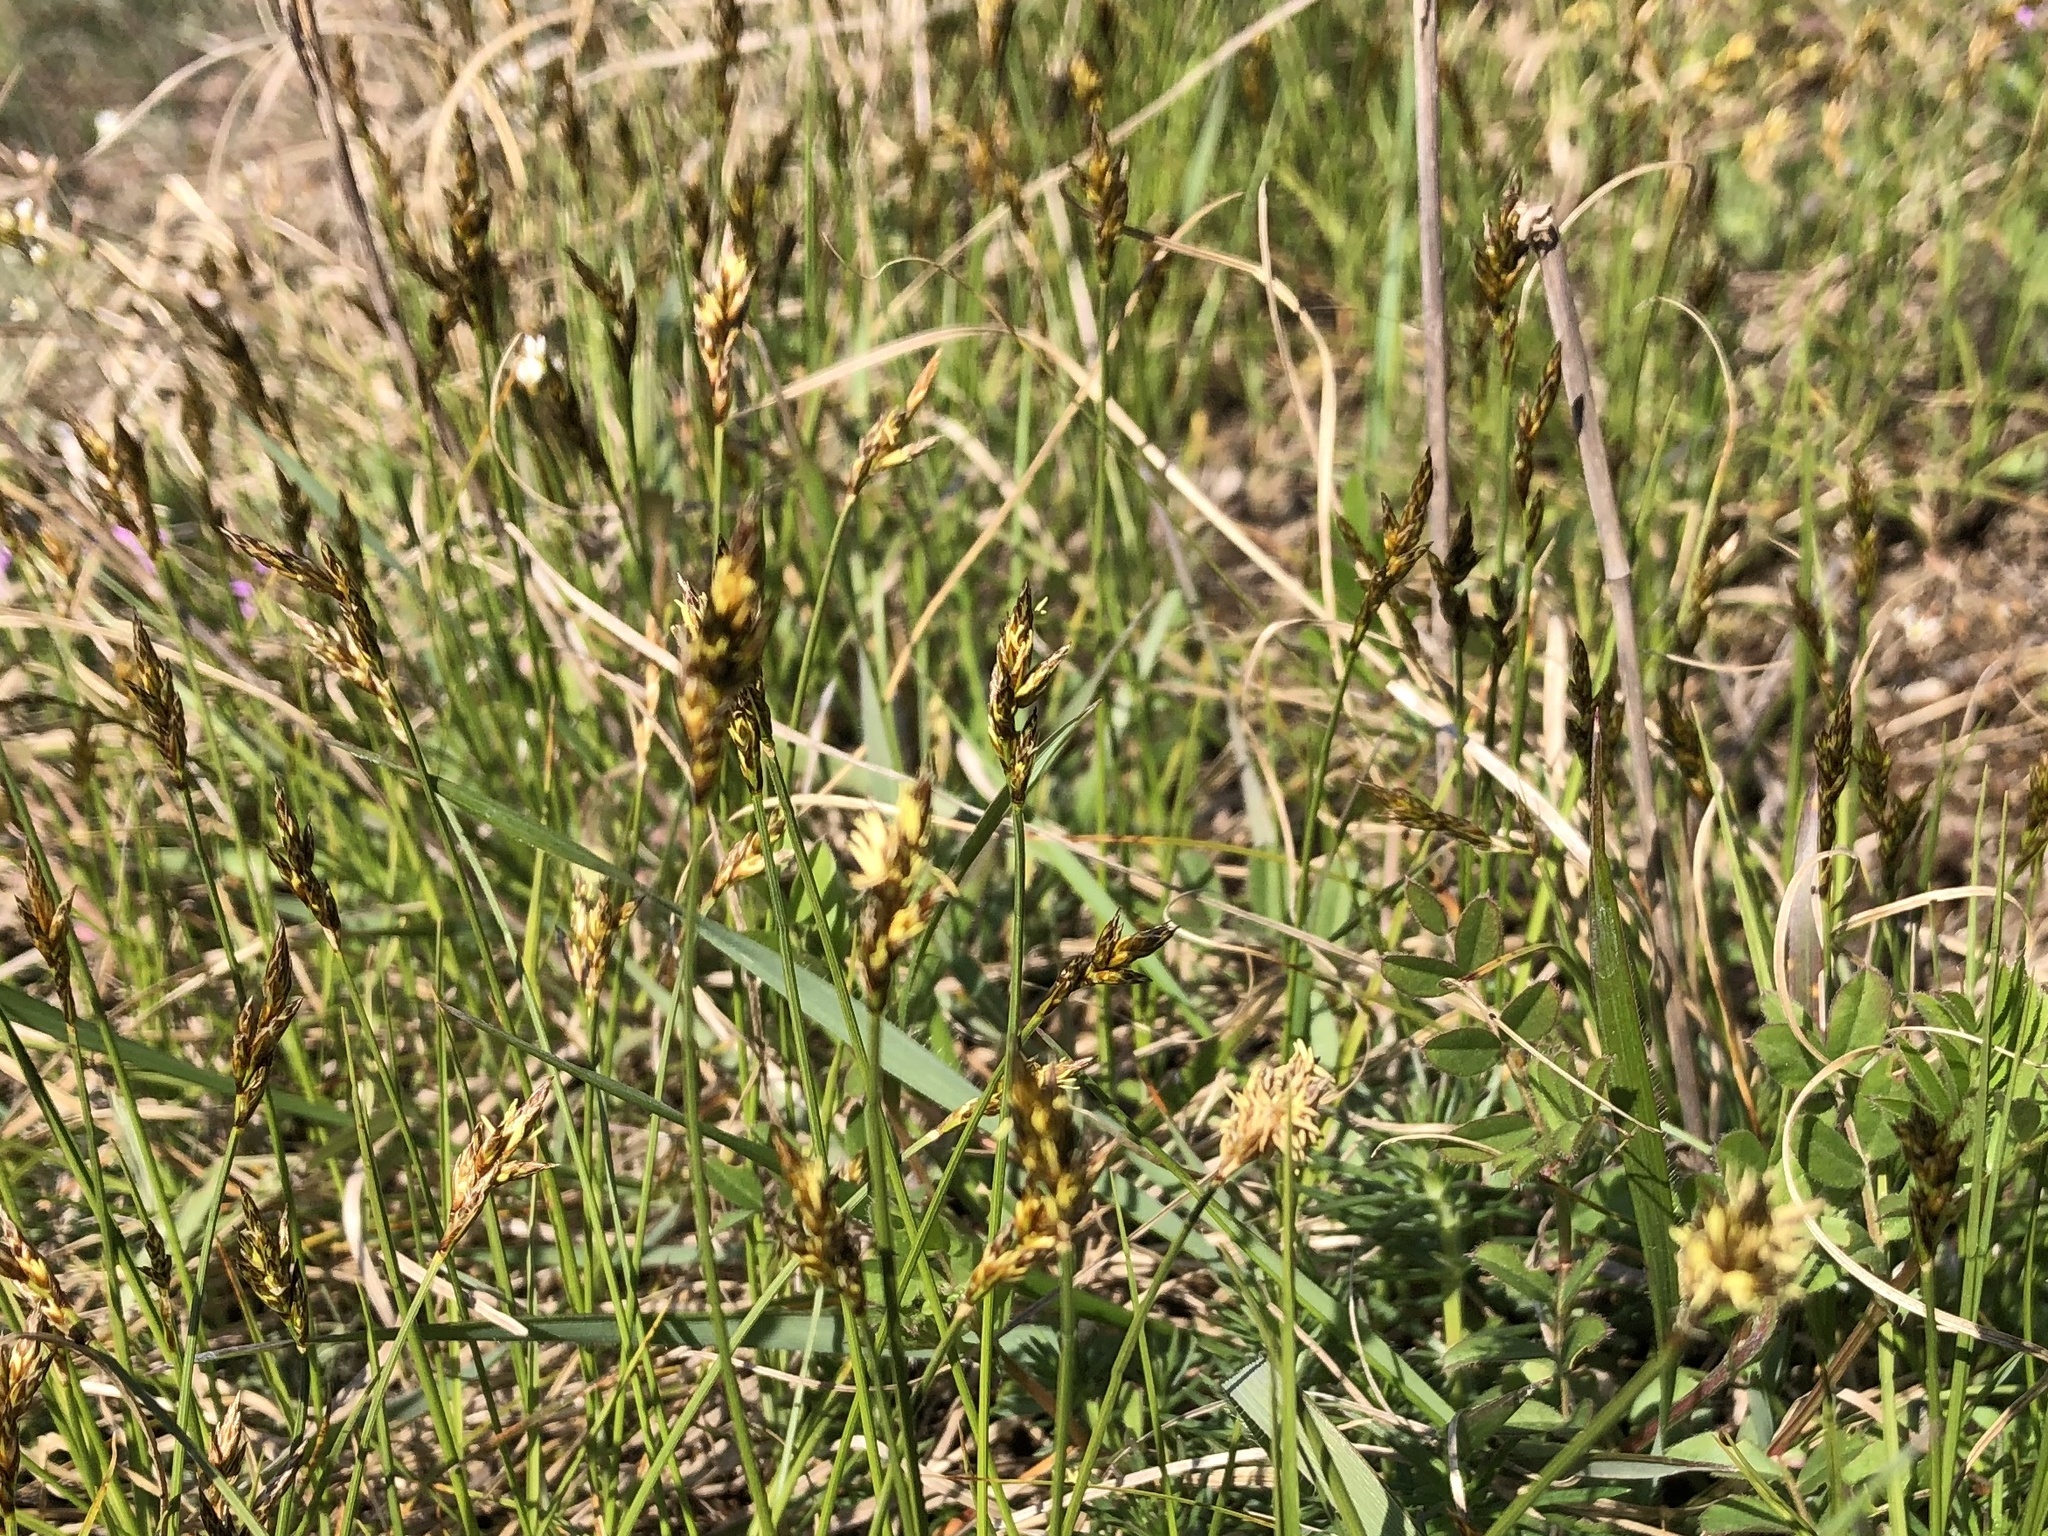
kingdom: Plantae
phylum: Tracheophyta
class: Liliopsida
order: Poales
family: Cyperaceae
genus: Carex
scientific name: Carex praecox
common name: Early sedge
